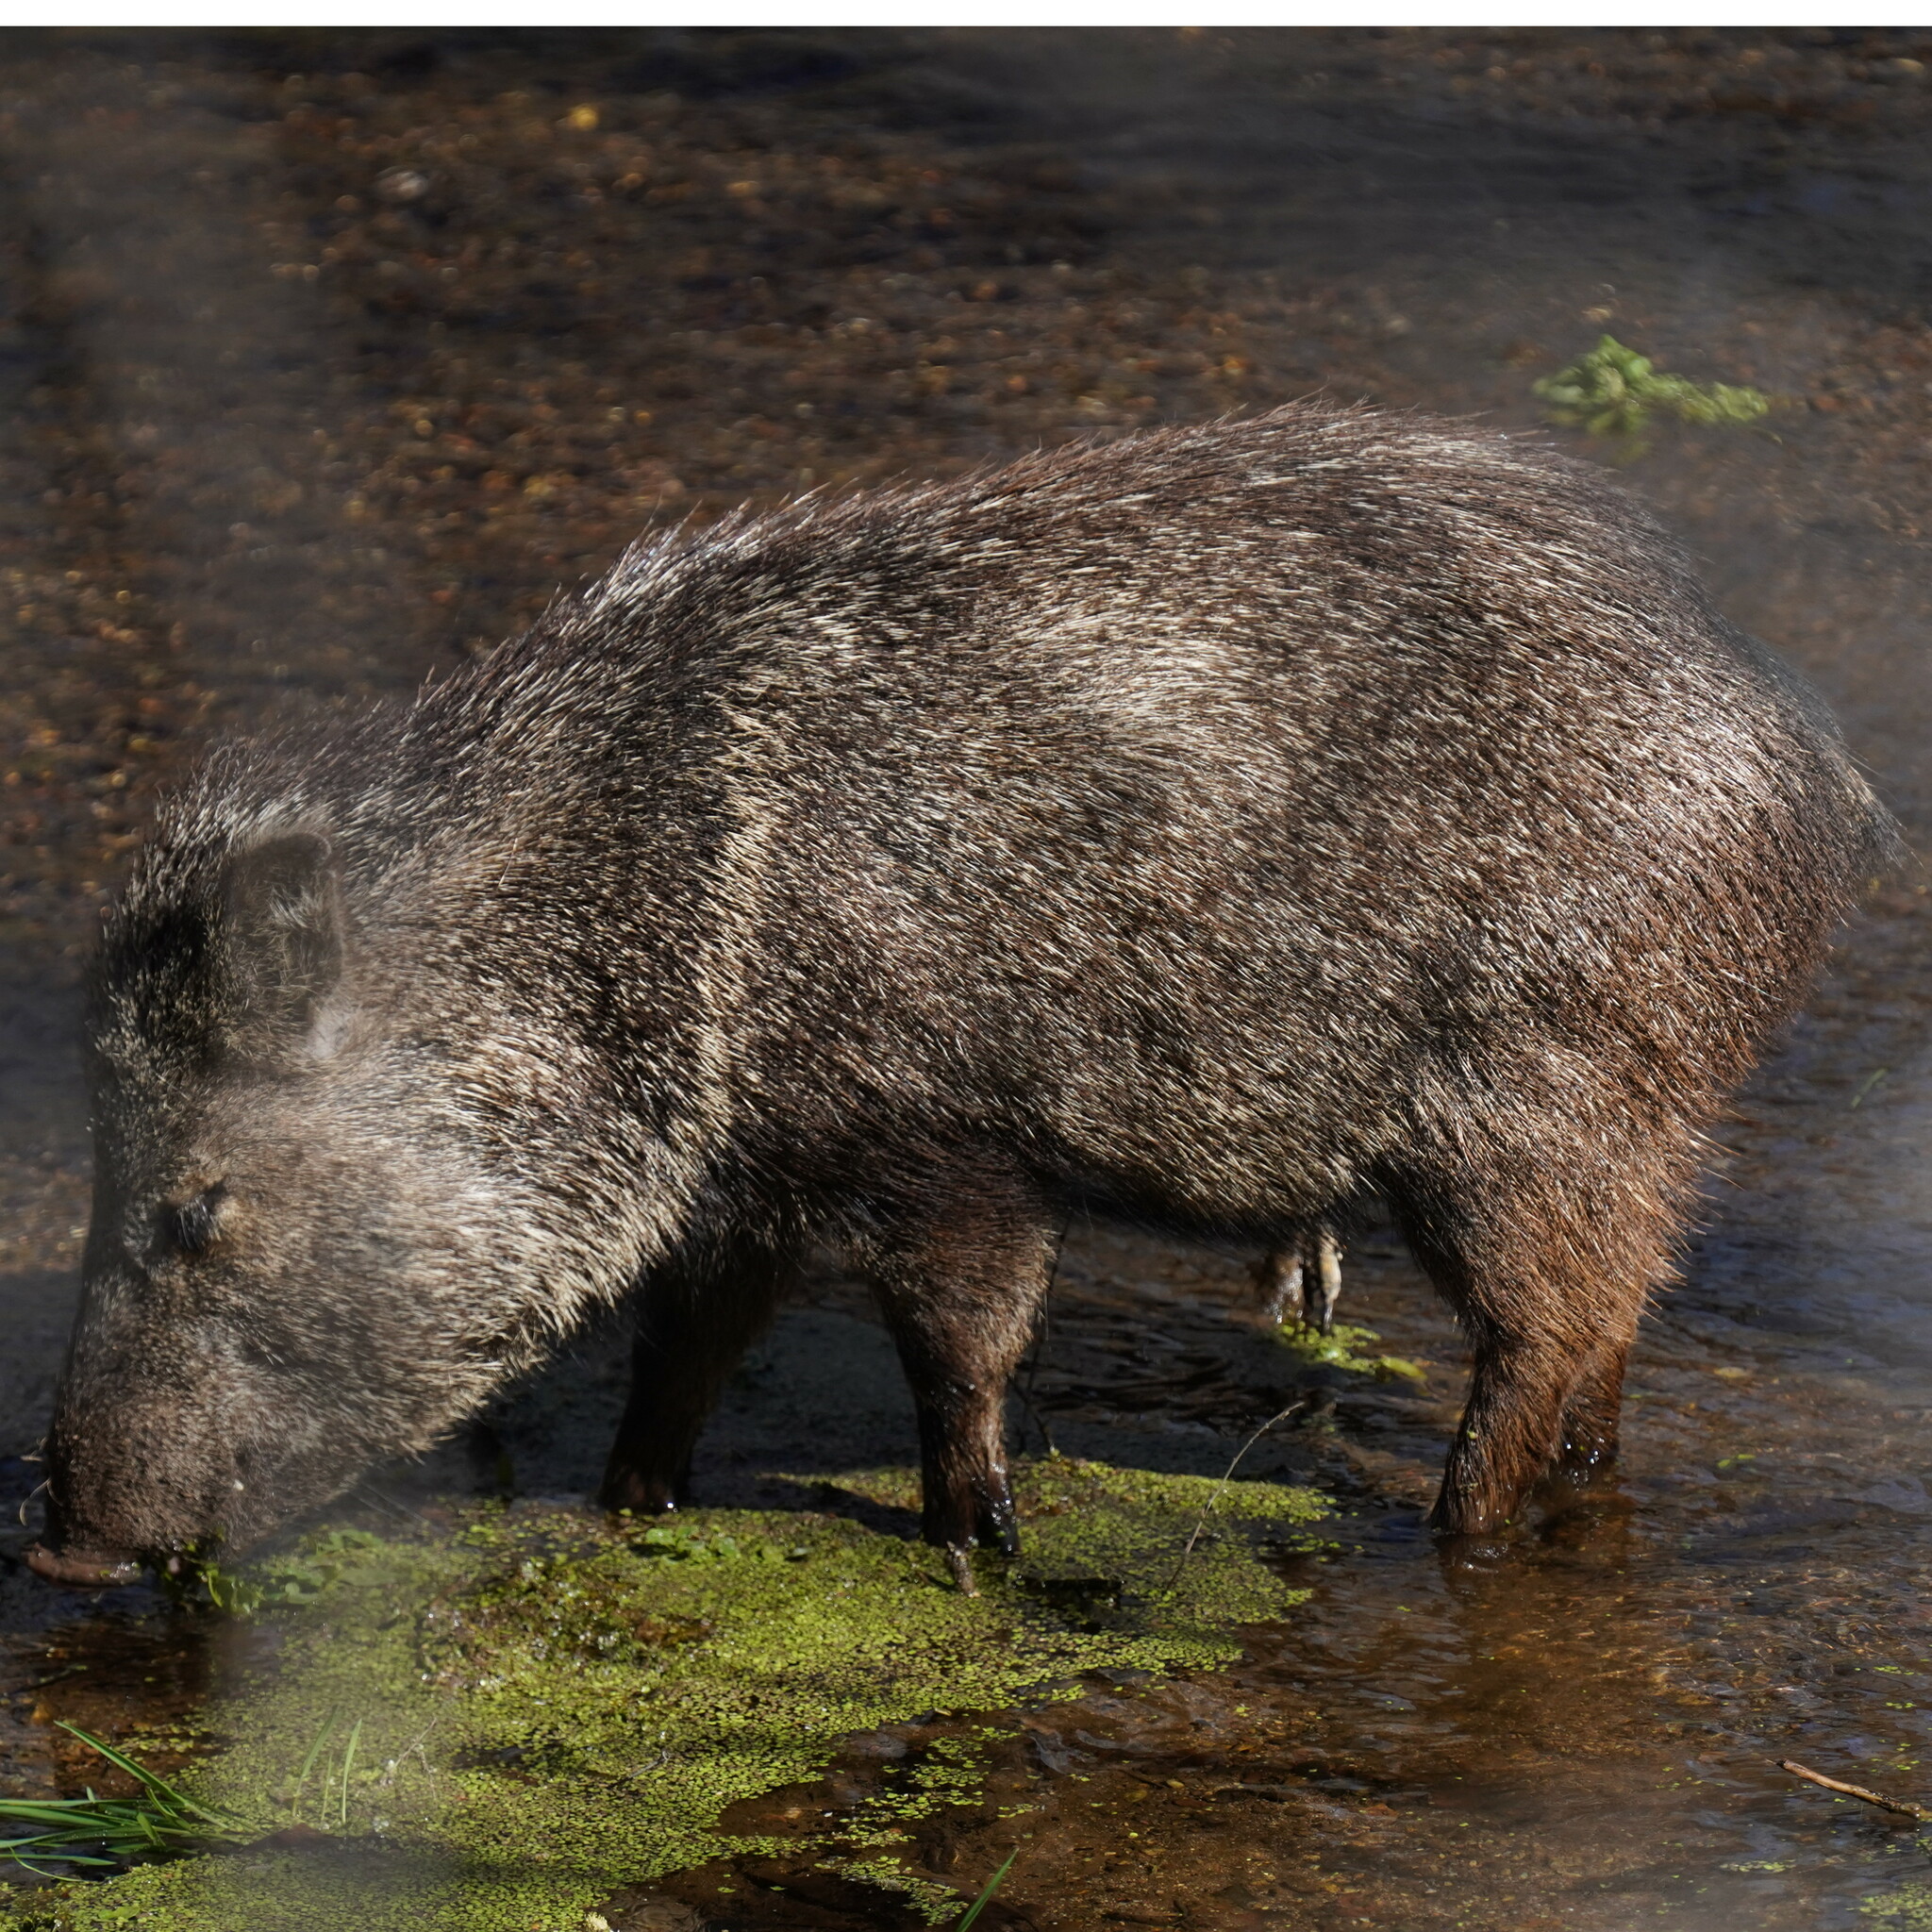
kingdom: Animalia
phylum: Chordata
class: Mammalia
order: Artiodactyla
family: Tayassuidae
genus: Pecari
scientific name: Pecari tajacu
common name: Collared peccary
